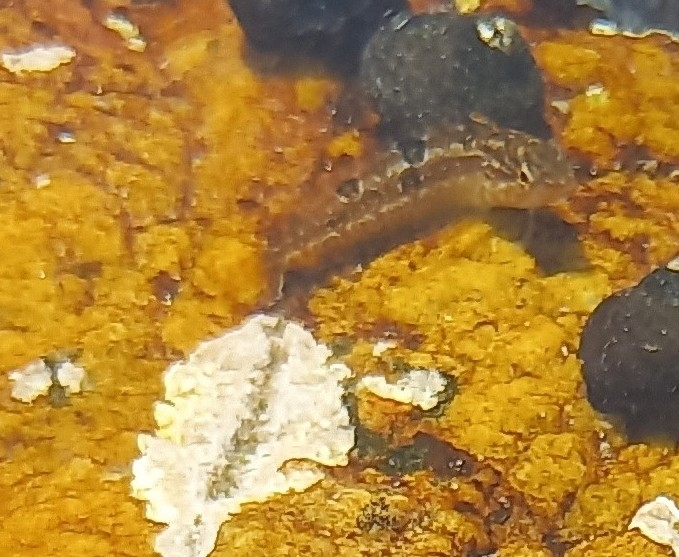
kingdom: Animalia
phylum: Chordata
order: Perciformes
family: Clinidae
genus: Clinus
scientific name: Clinus venustris
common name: Speckled klipfish
